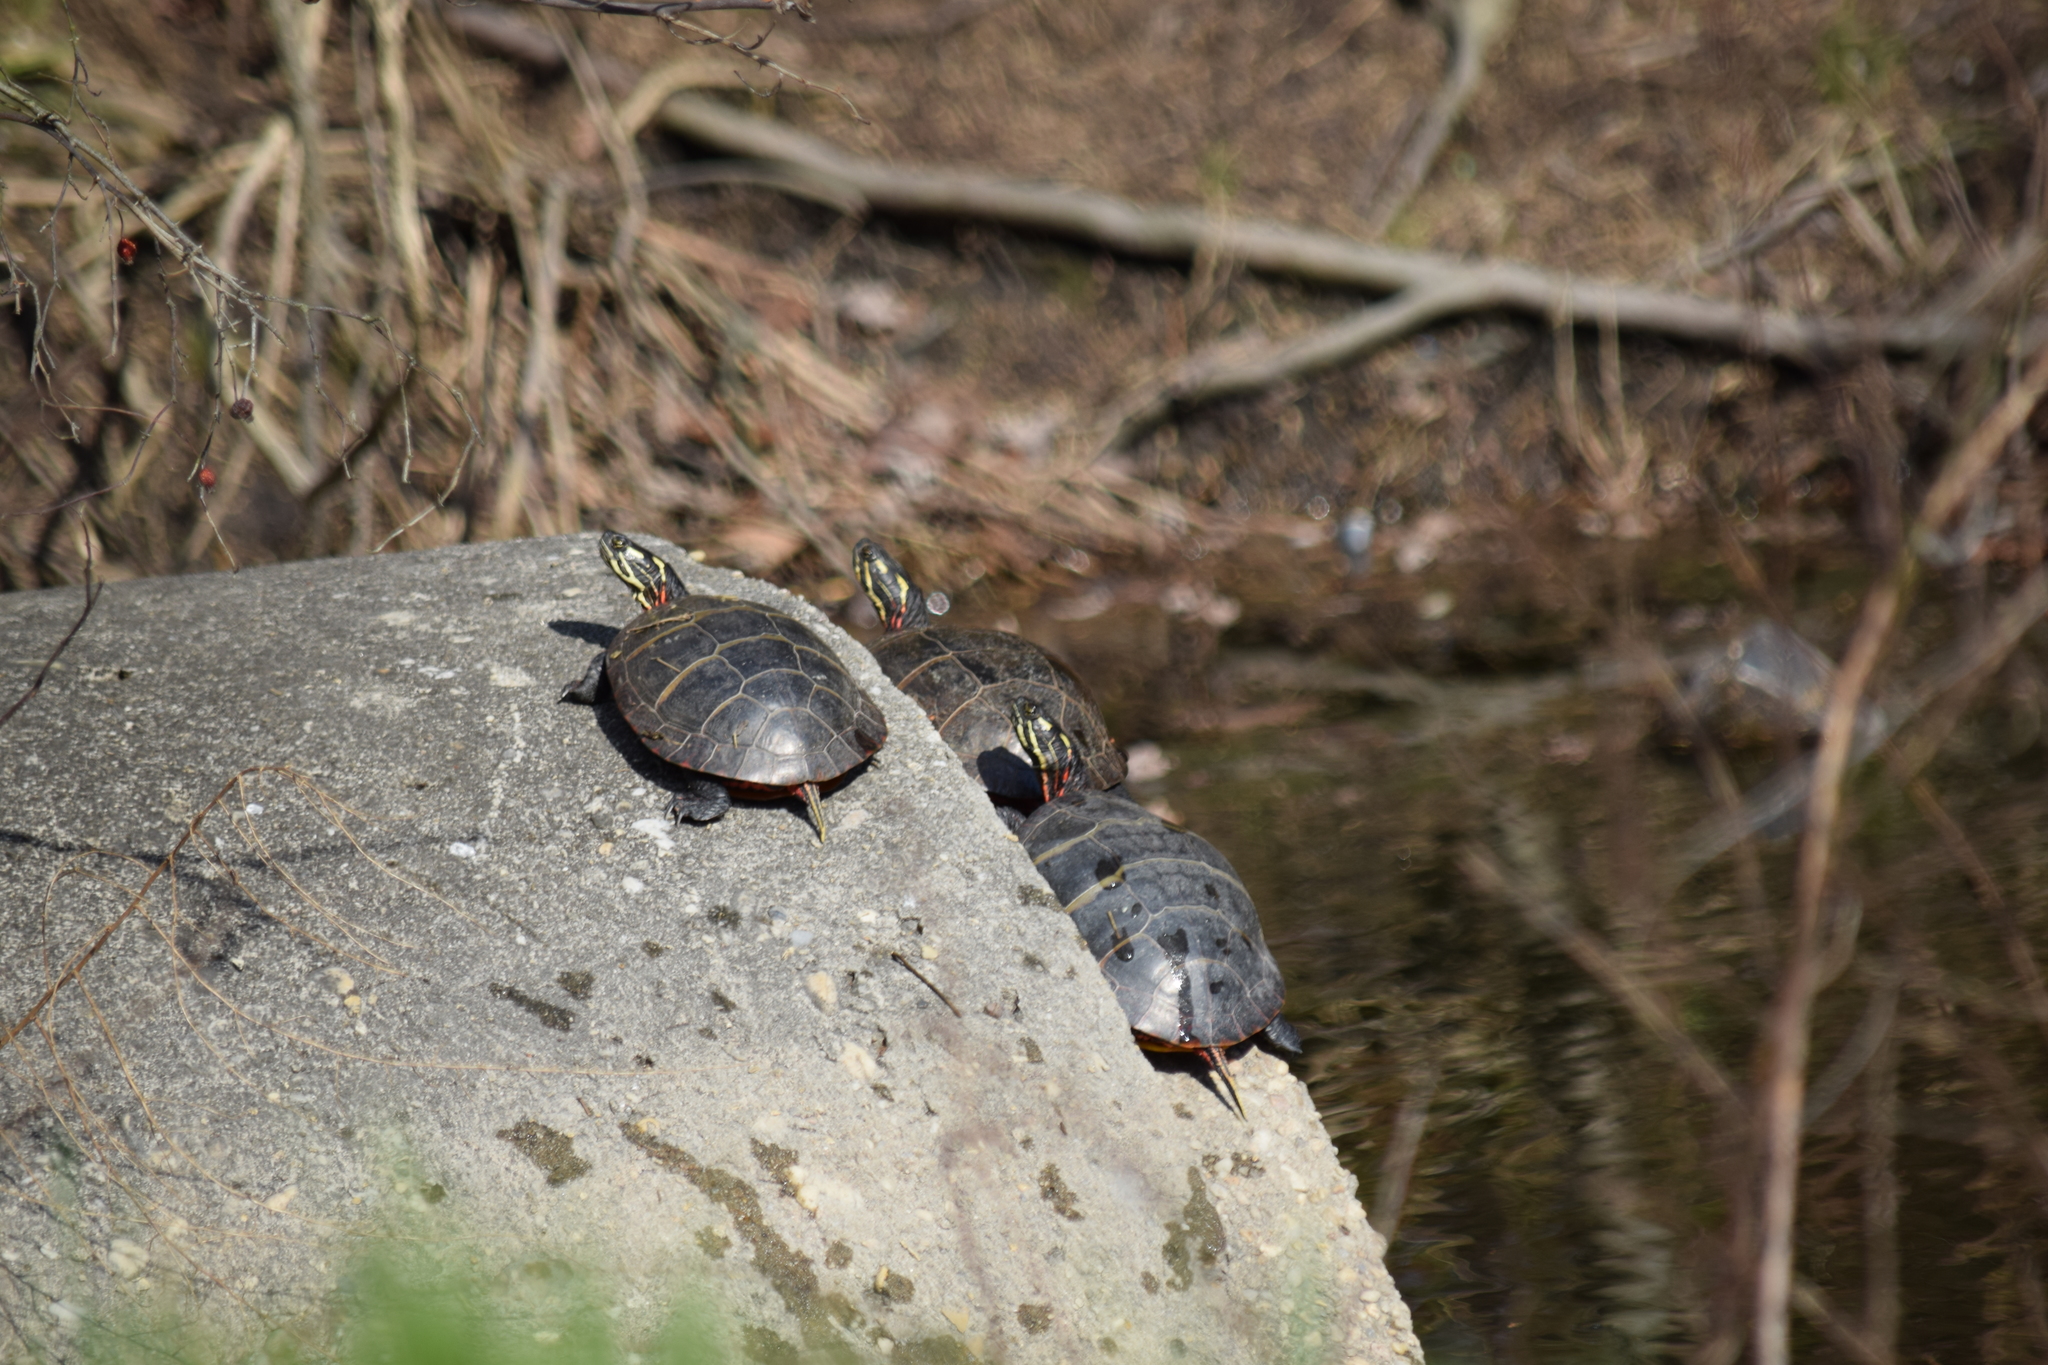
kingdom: Animalia
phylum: Chordata
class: Testudines
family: Emydidae
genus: Chrysemys
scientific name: Chrysemys picta
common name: Painted turtle
